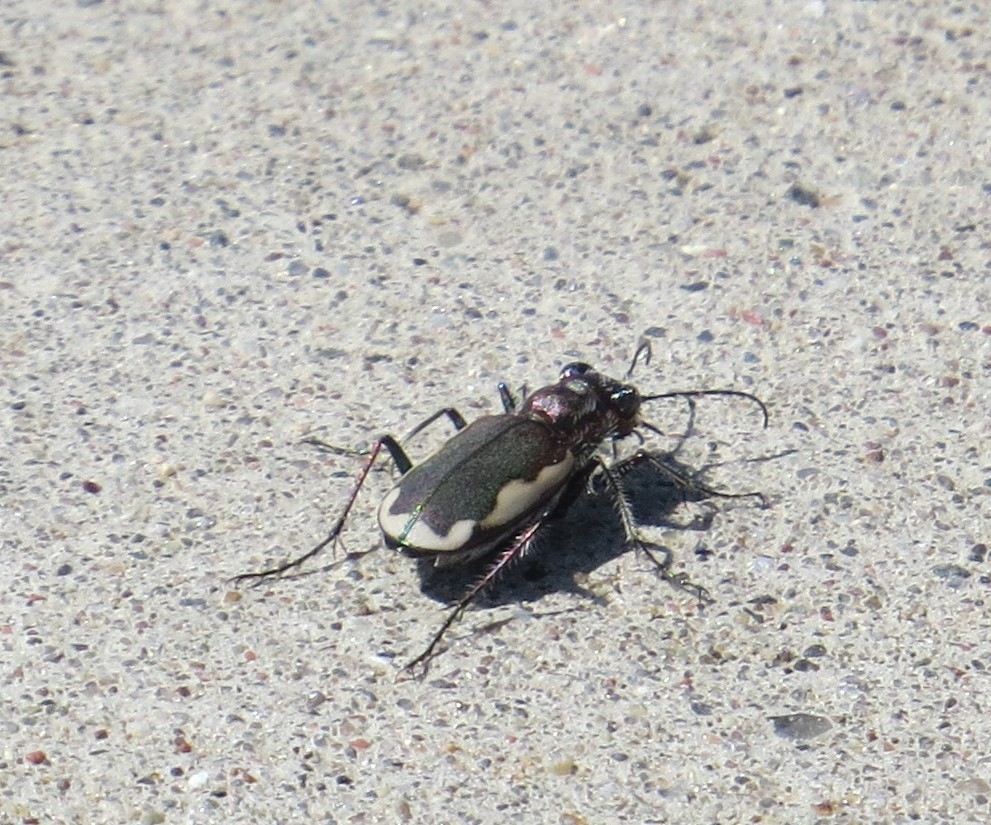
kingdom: Animalia
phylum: Arthropoda
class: Insecta
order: Coleoptera
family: Carabidae
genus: Cicindela
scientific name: Cicindela scutellaris
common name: Festive tiger beetle
